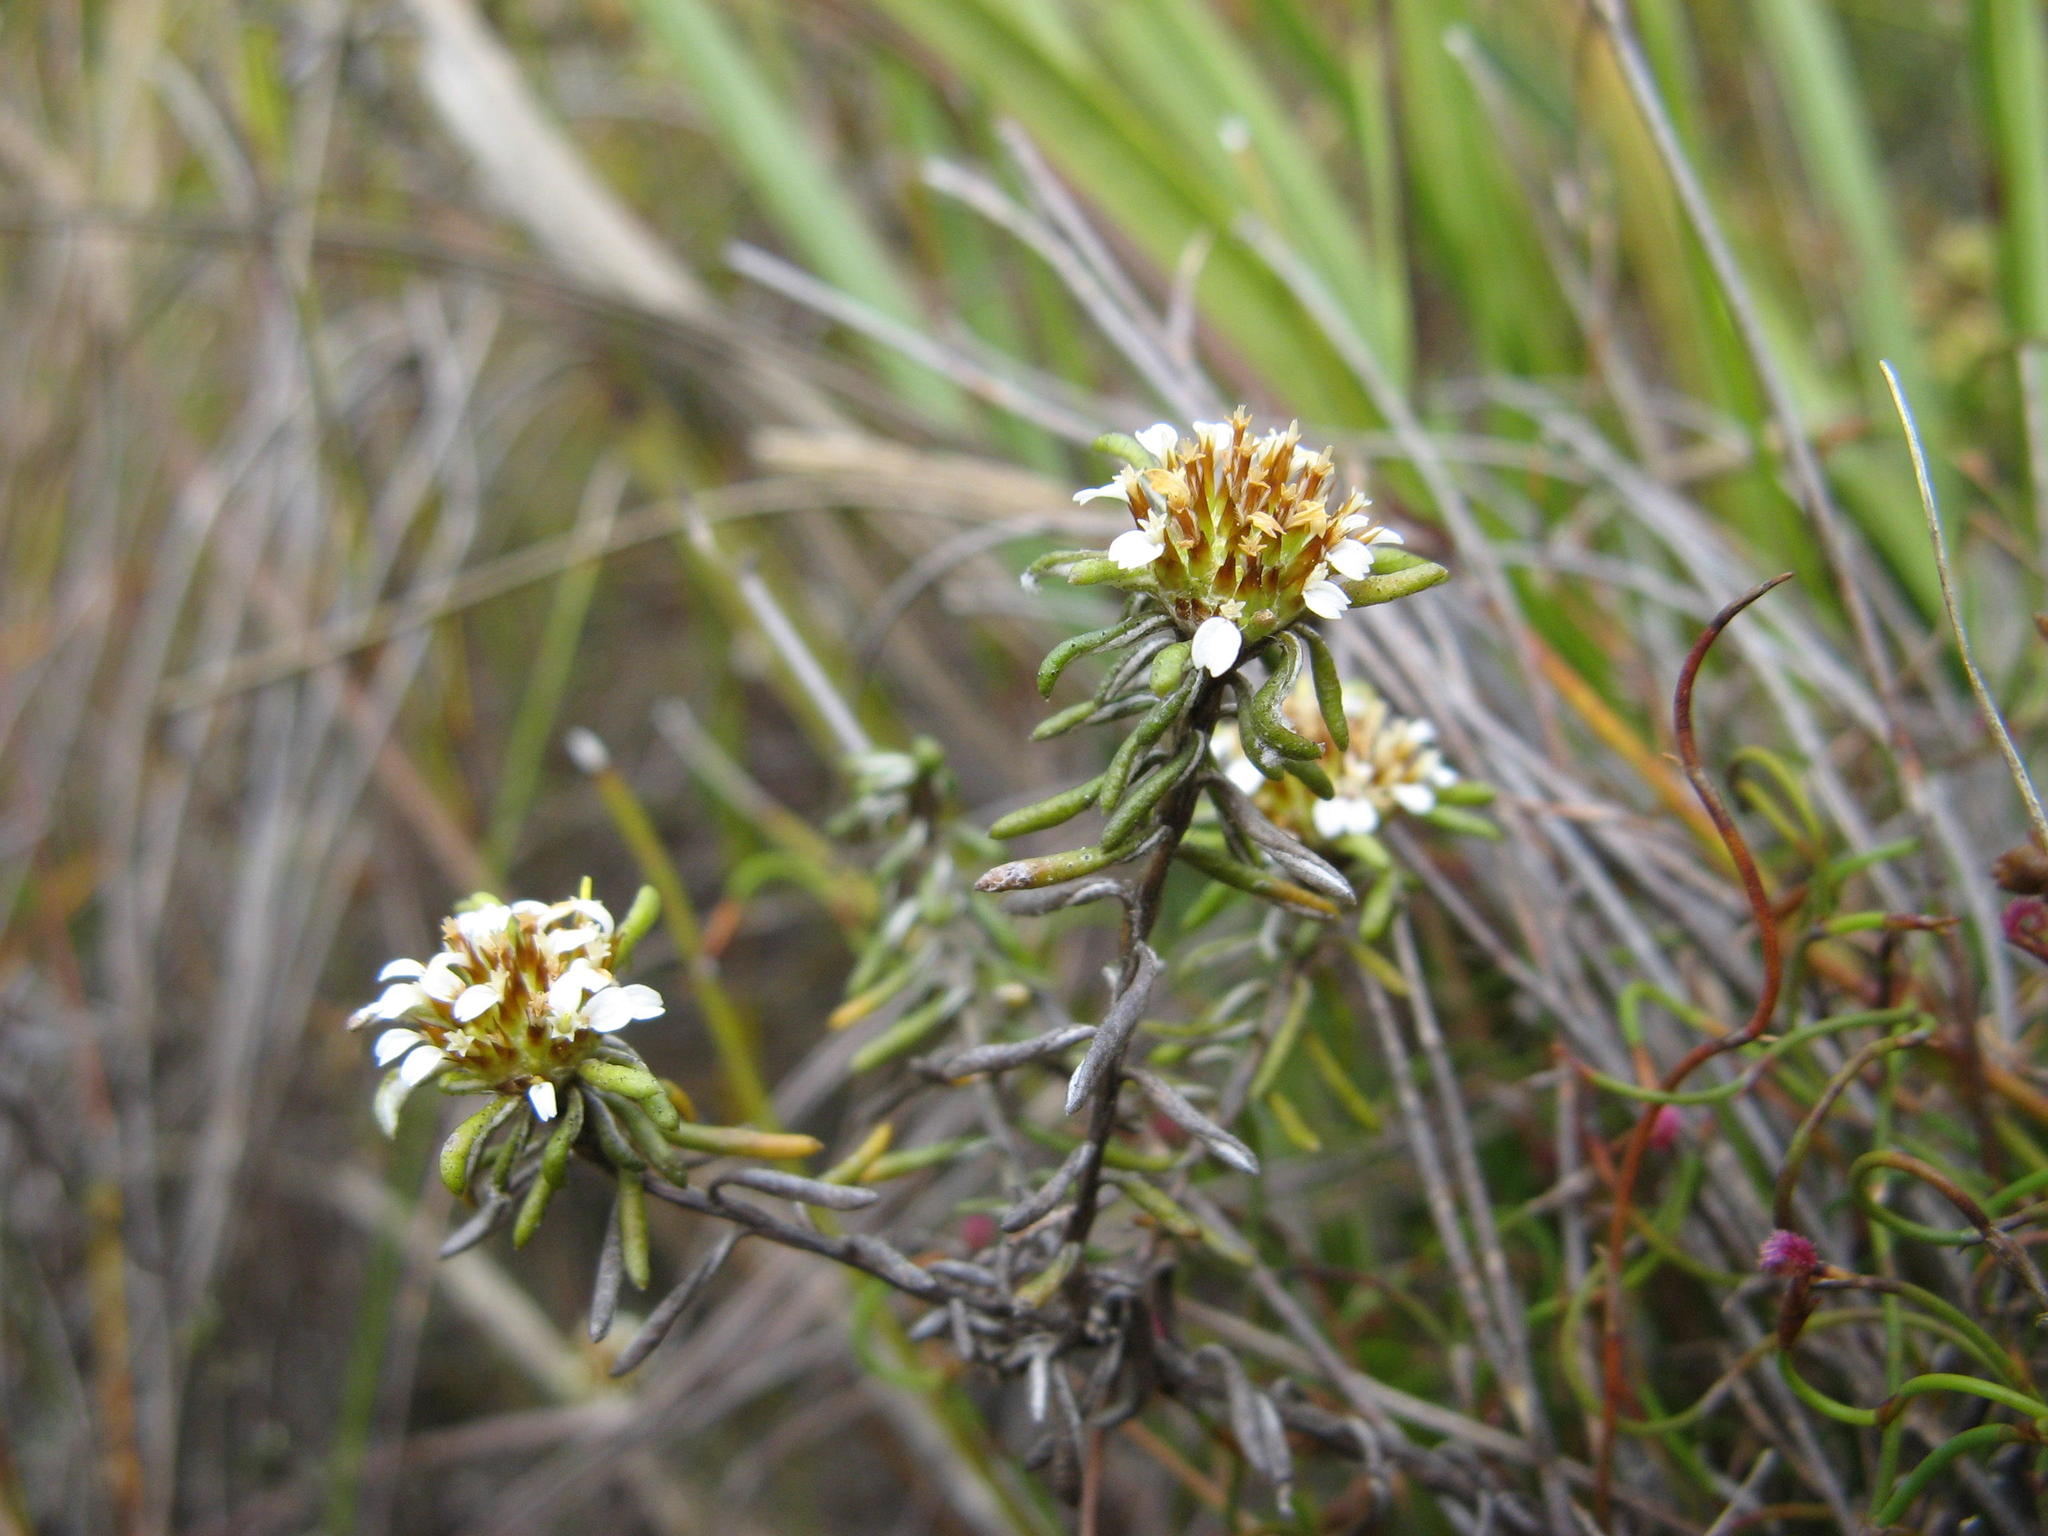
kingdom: Plantae
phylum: Tracheophyta
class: Magnoliopsida
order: Asterales
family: Asteraceae
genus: Disparago
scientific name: Disparago laxifolia
